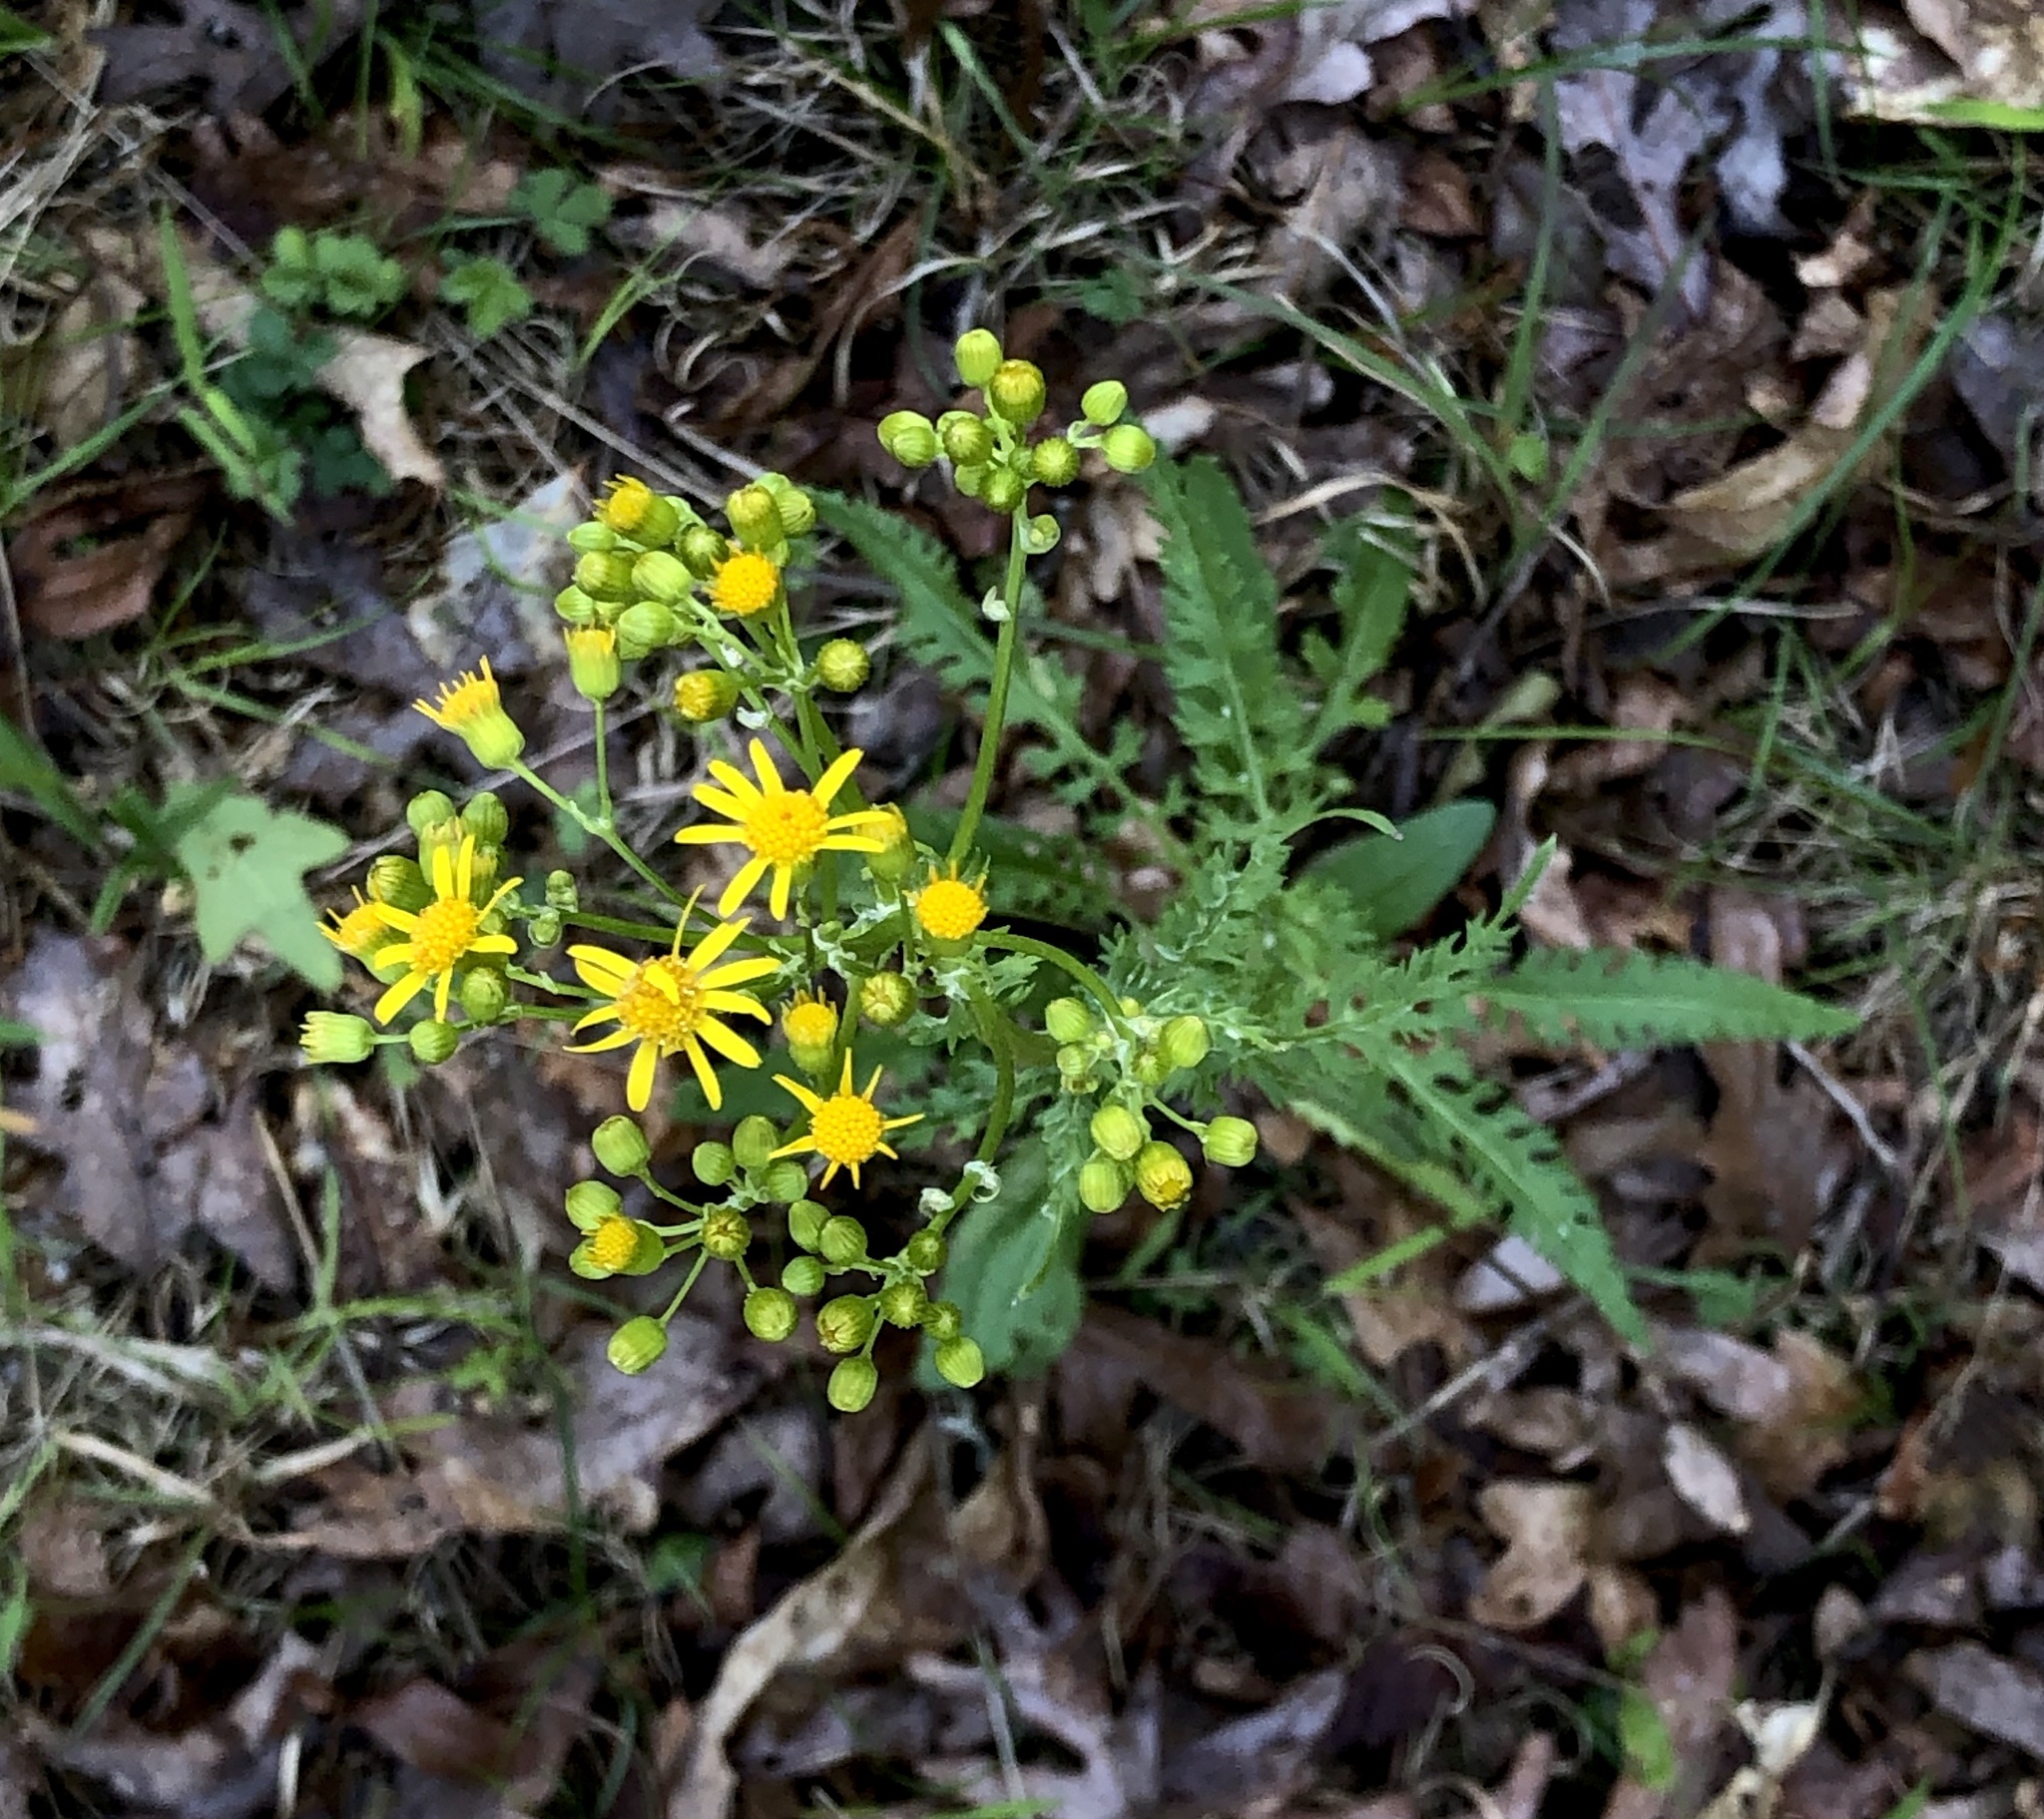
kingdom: Plantae
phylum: Tracheophyta
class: Magnoliopsida
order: Asterales
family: Asteraceae
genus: Packera
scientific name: Packera anonyma
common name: Small ragwort
